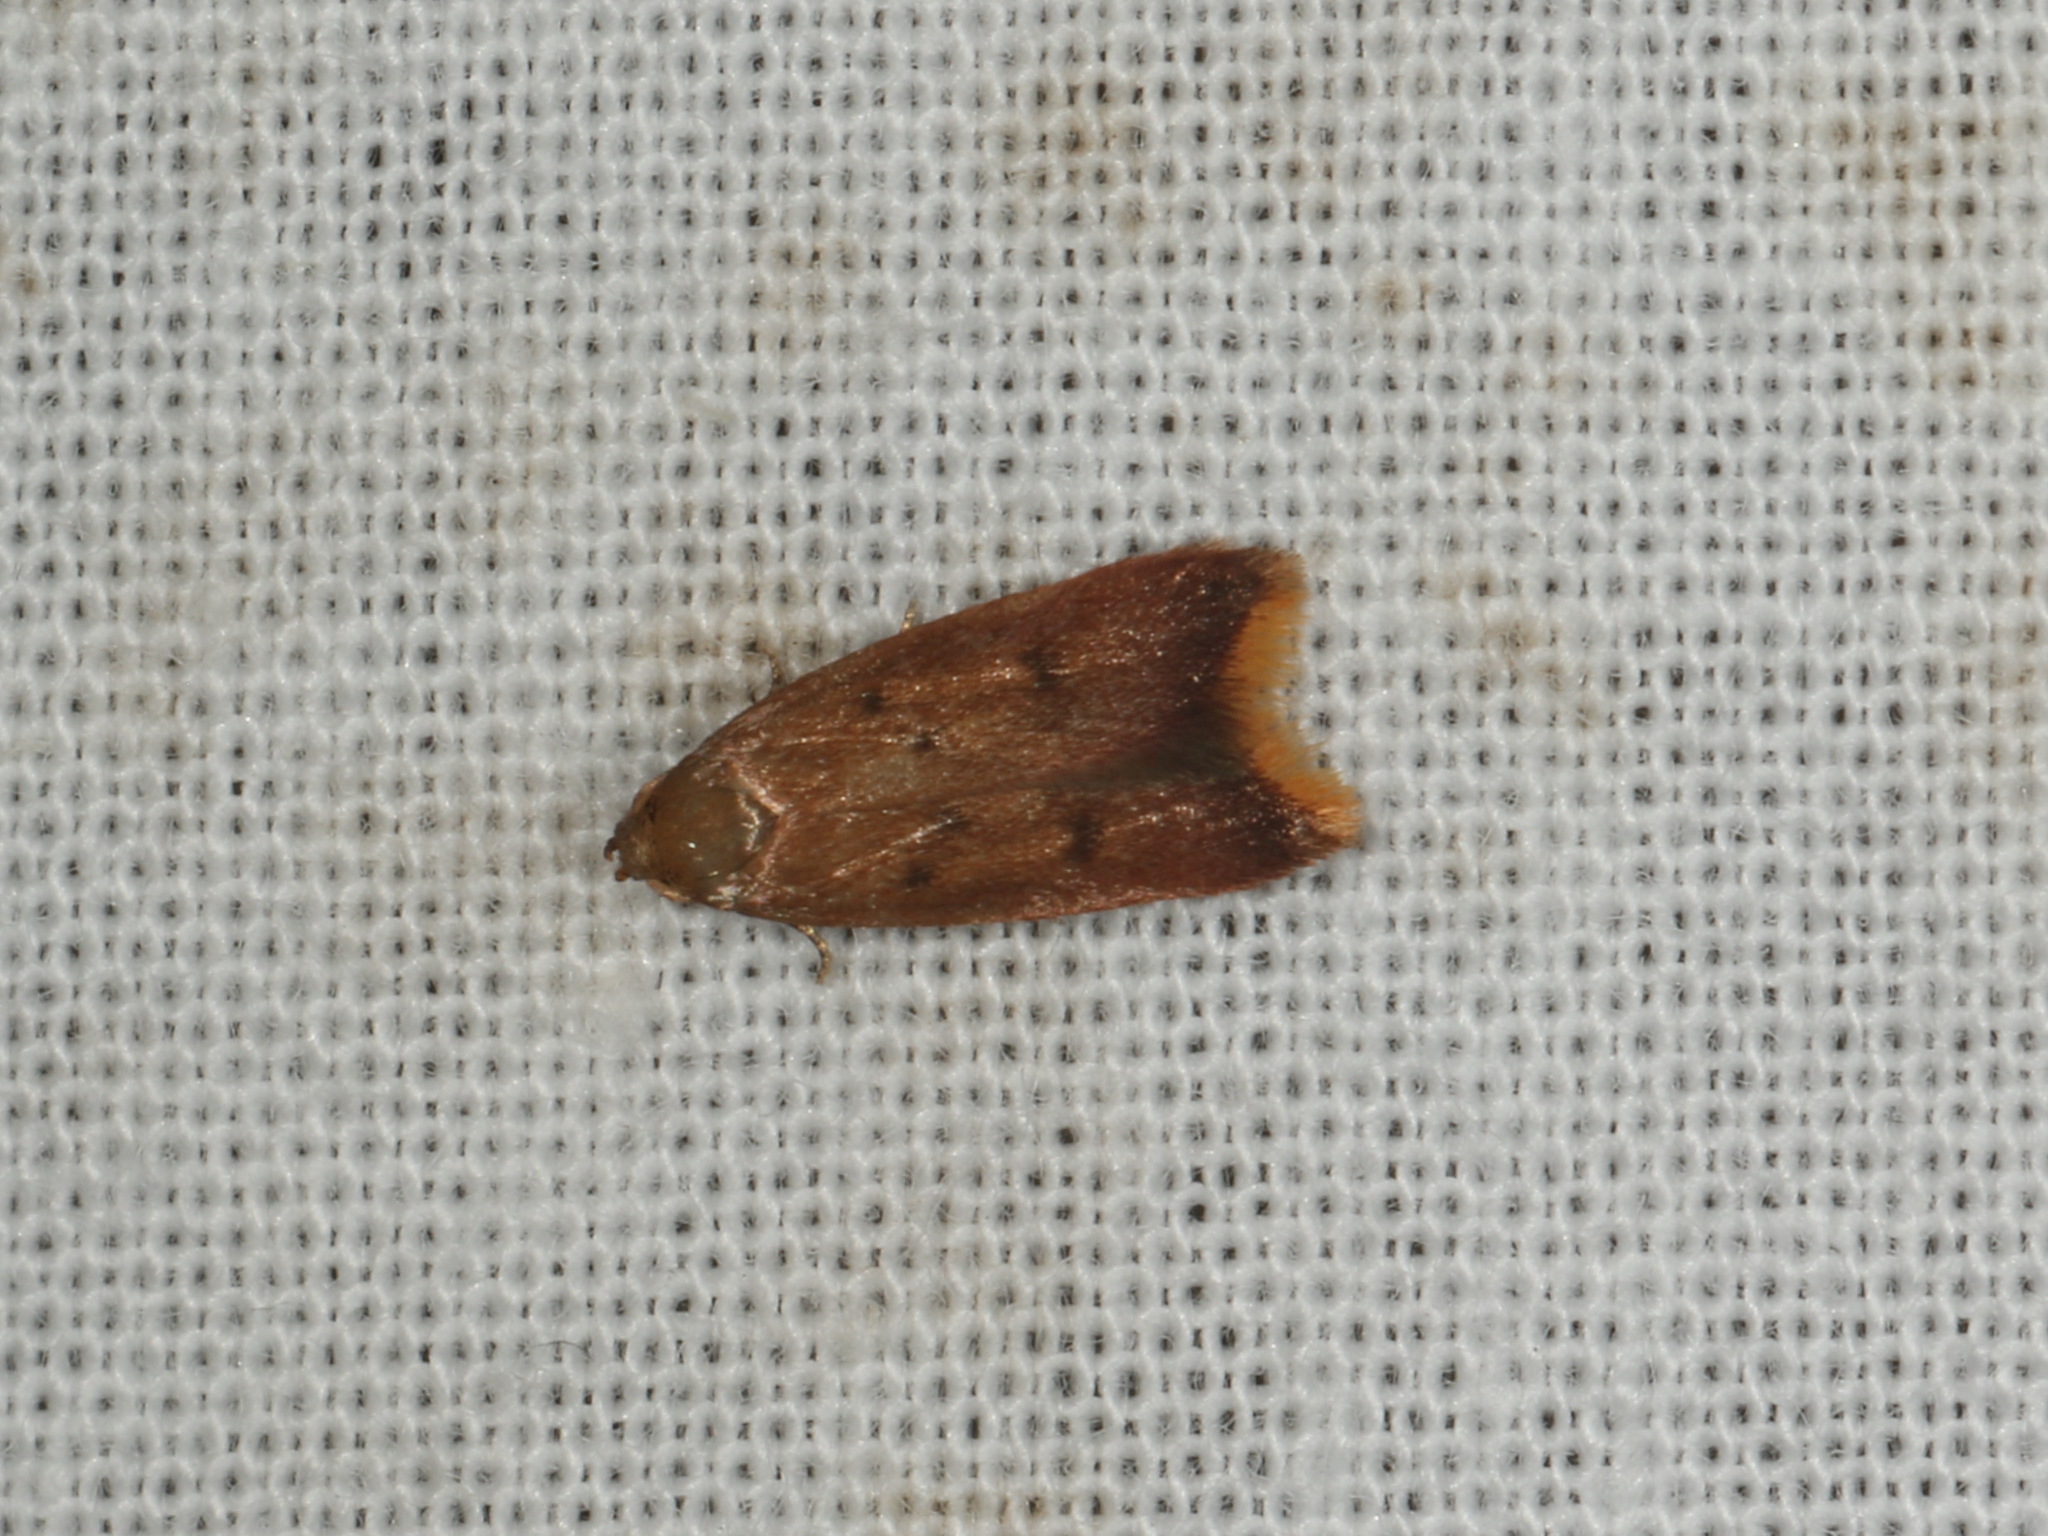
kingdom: Animalia
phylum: Arthropoda
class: Insecta
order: Lepidoptera
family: Oecophoridae
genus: Tachystola
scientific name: Tachystola acroxantha
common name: Ruddy streak
